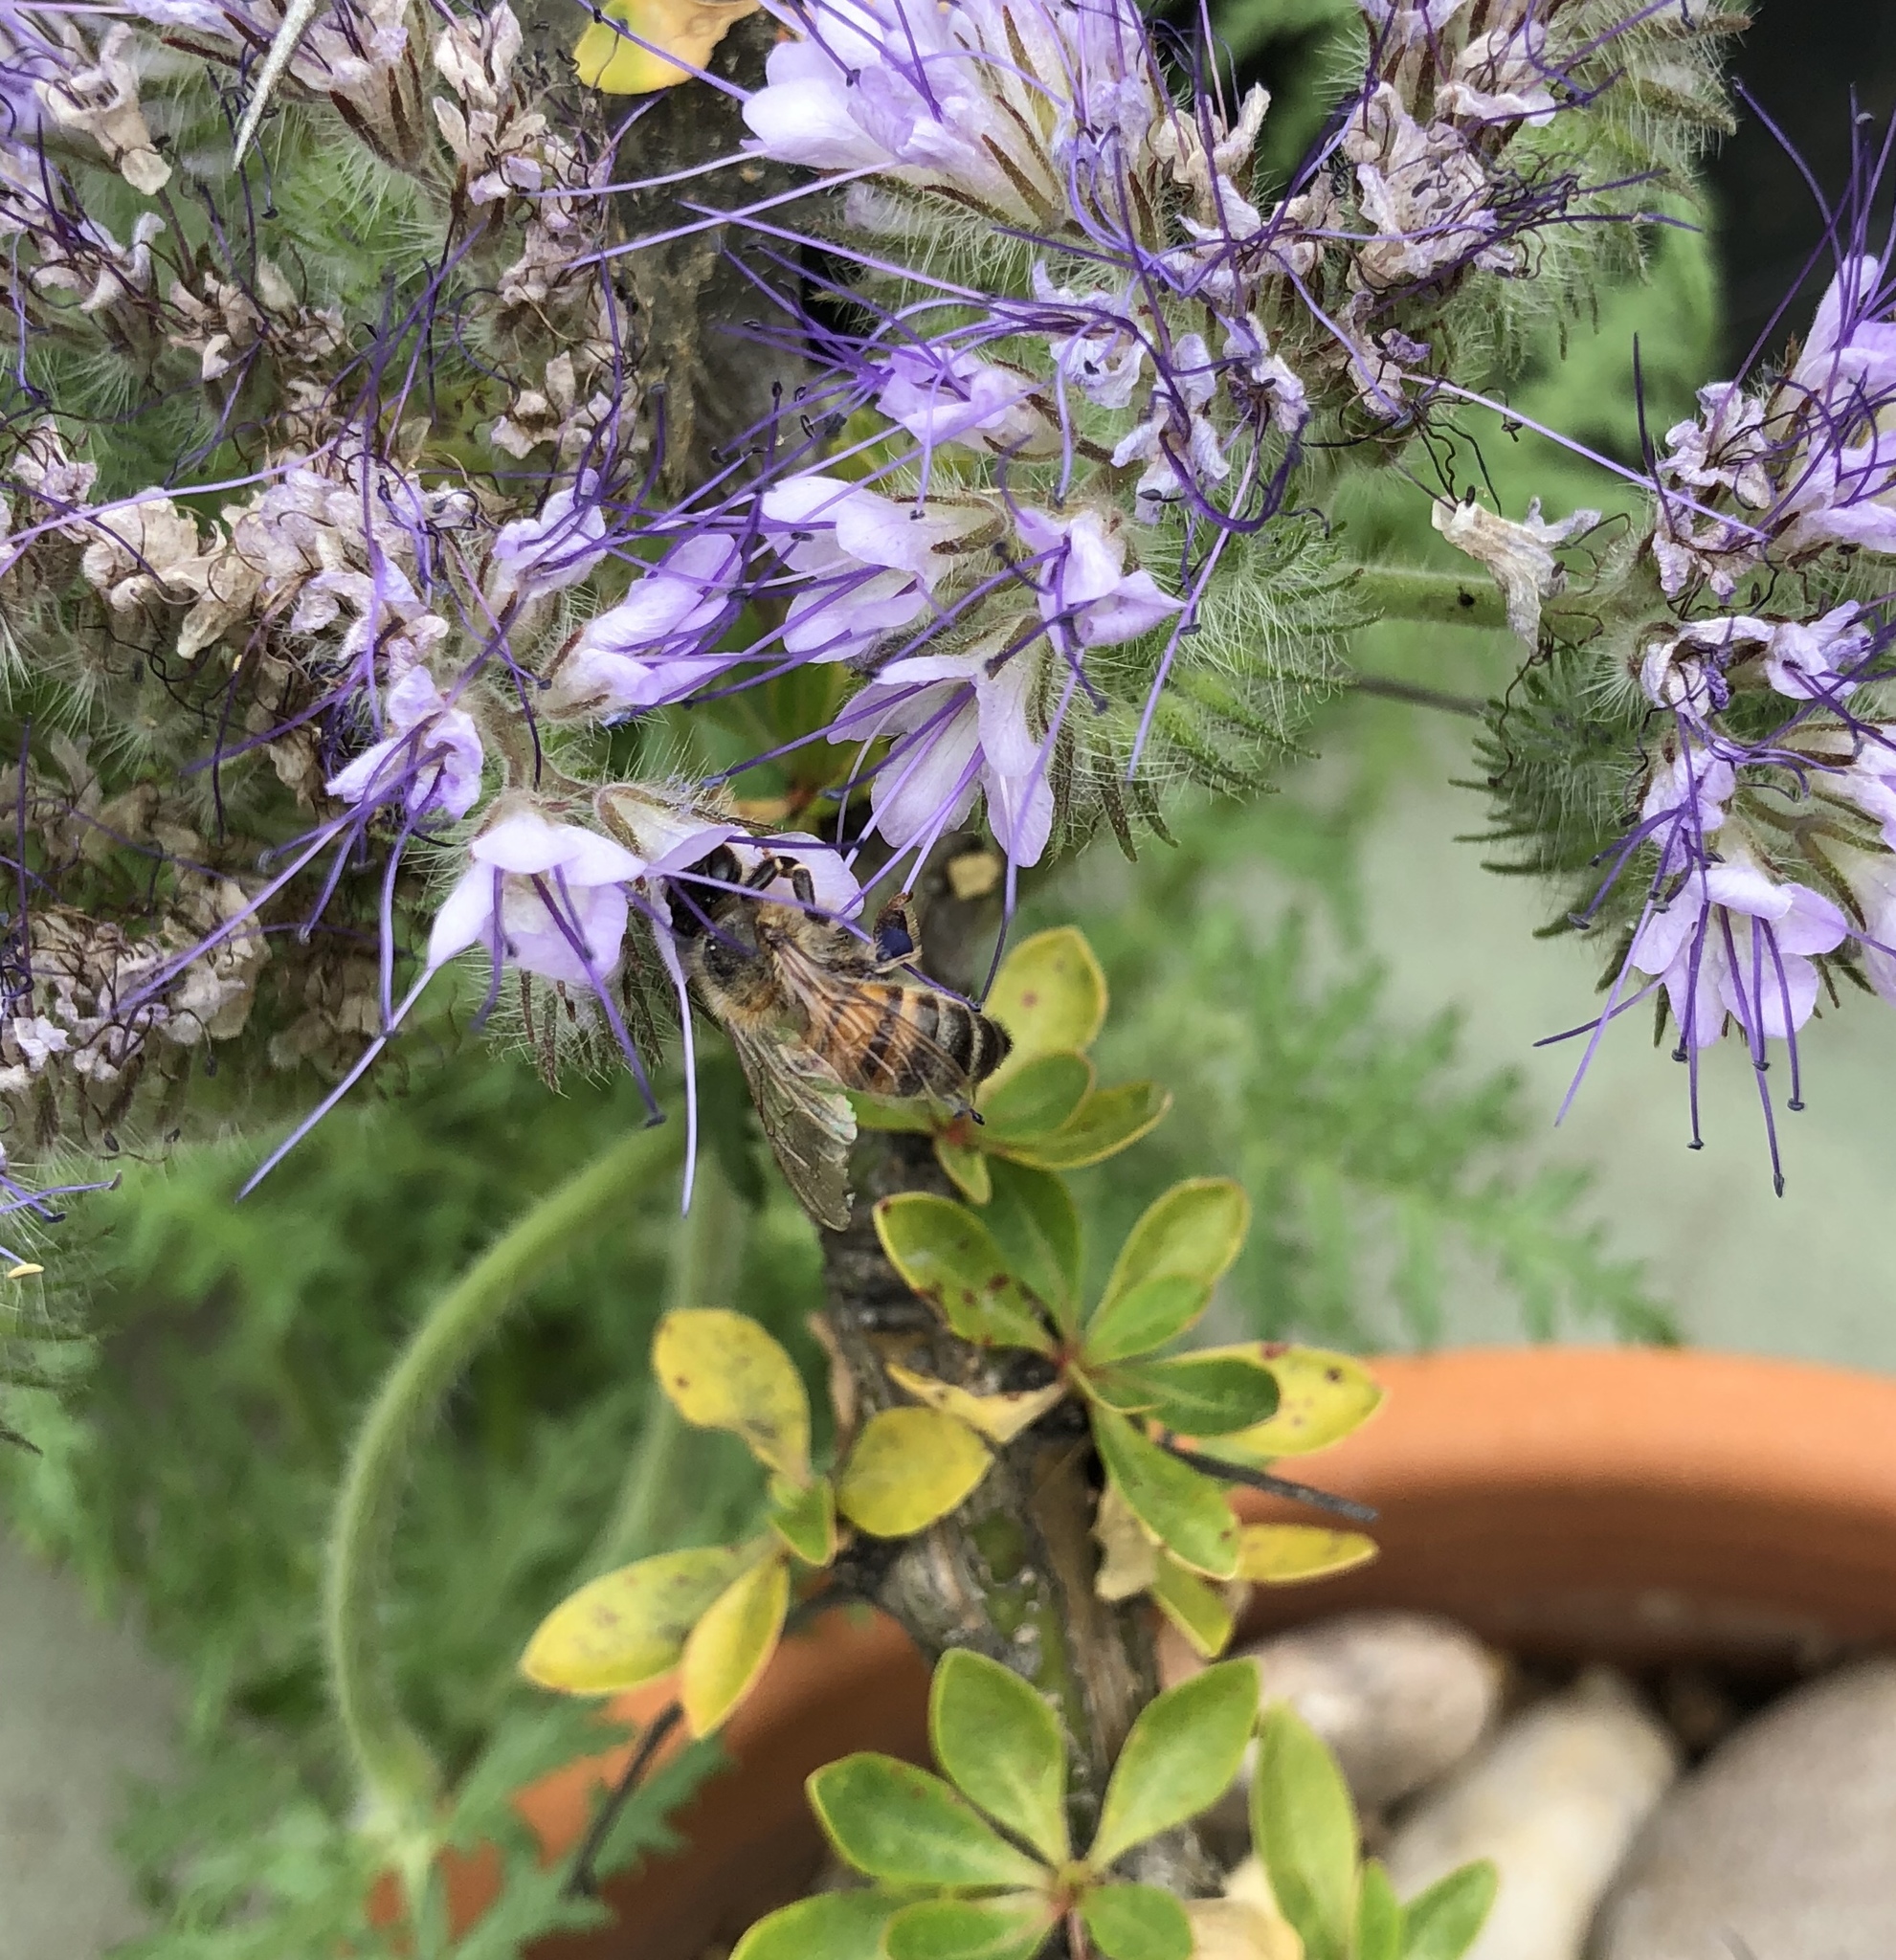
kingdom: Animalia
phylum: Arthropoda
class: Insecta
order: Hymenoptera
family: Apidae
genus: Apis
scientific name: Apis mellifera
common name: Honey bee
